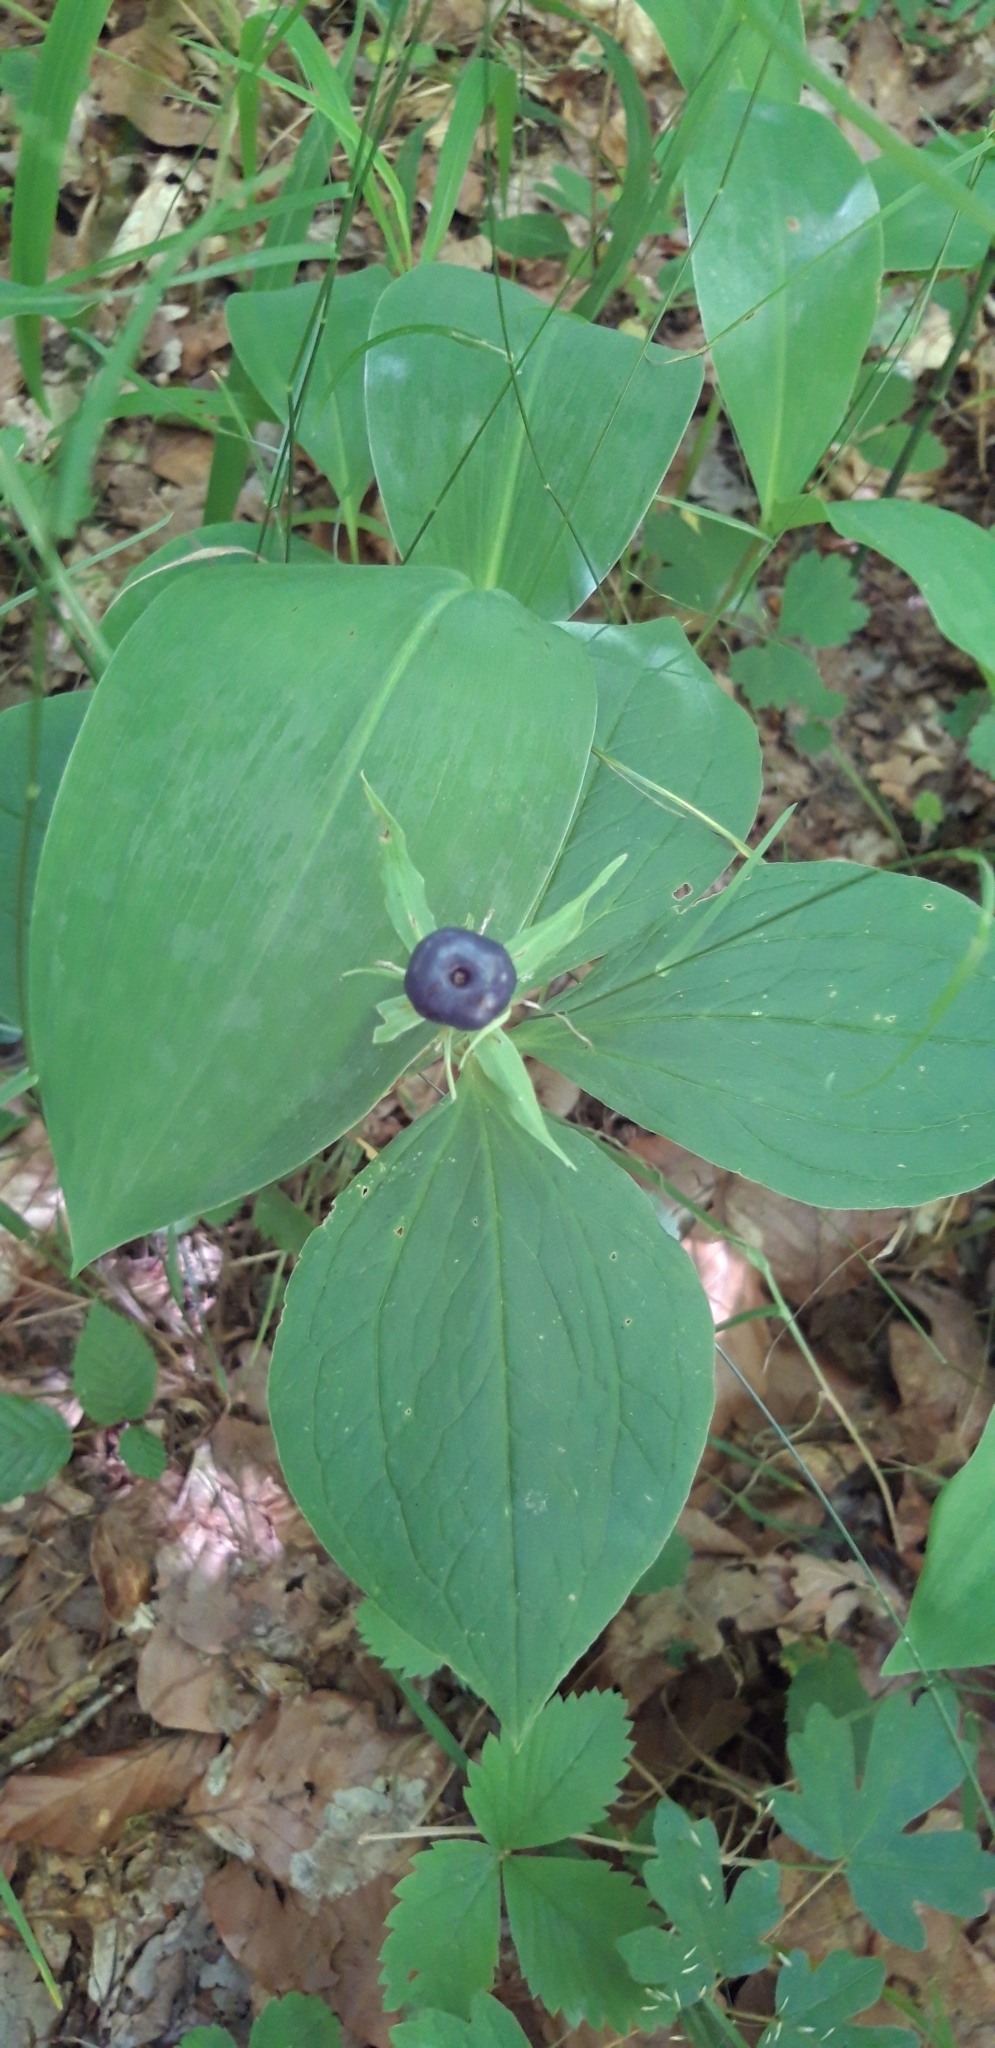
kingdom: Plantae
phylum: Tracheophyta
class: Liliopsida
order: Liliales
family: Melanthiaceae
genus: Paris
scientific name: Paris quadrifolia
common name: Herb-paris
